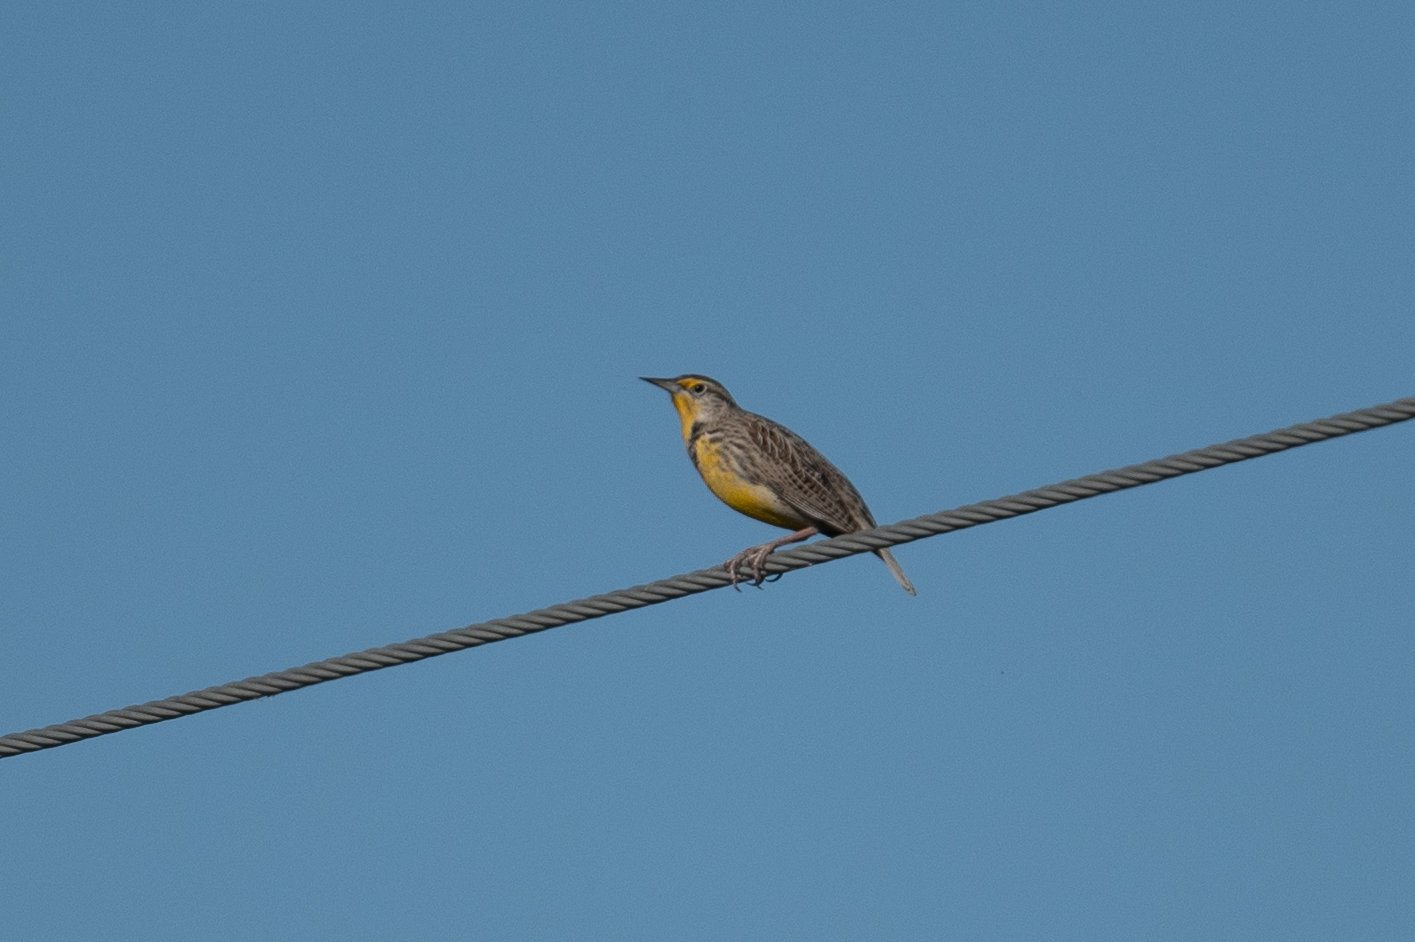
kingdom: Animalia
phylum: Chordata
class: Aves
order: Passeriformes
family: Icteridae
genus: Sturnella
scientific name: Sturnella neglecta
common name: Western meadowlark
